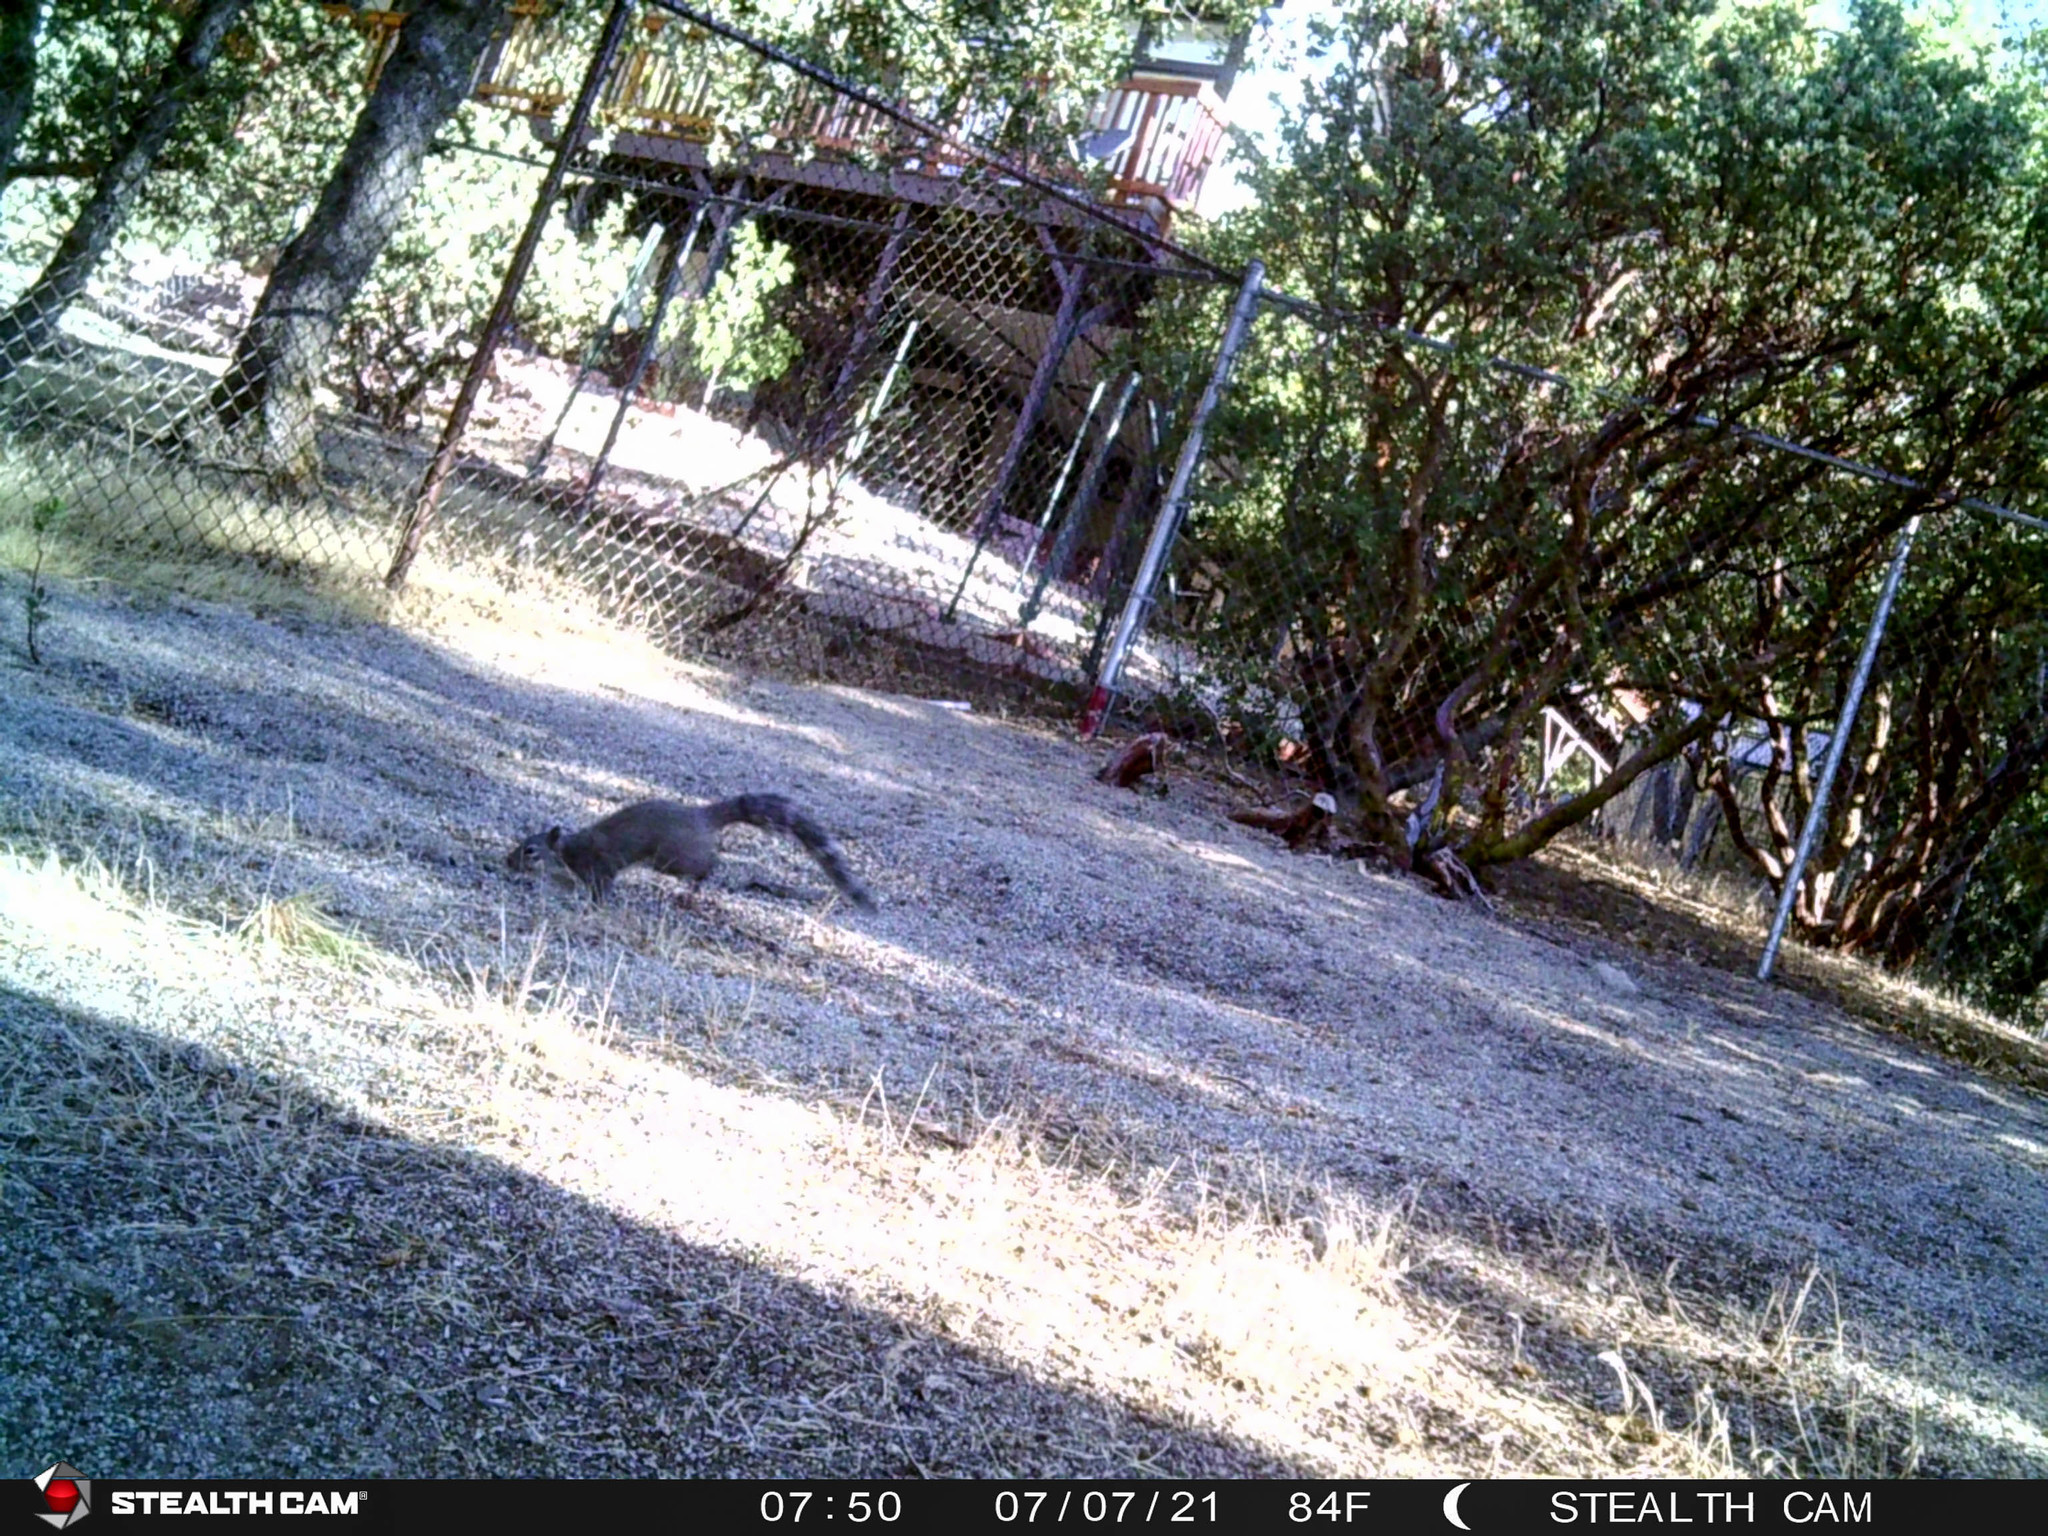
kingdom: Animalia
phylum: Chordata
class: Mammalia
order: Rodentia
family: Sciuridae
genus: Sciurus
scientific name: Sciurus griseus
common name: Western gray squirrel
